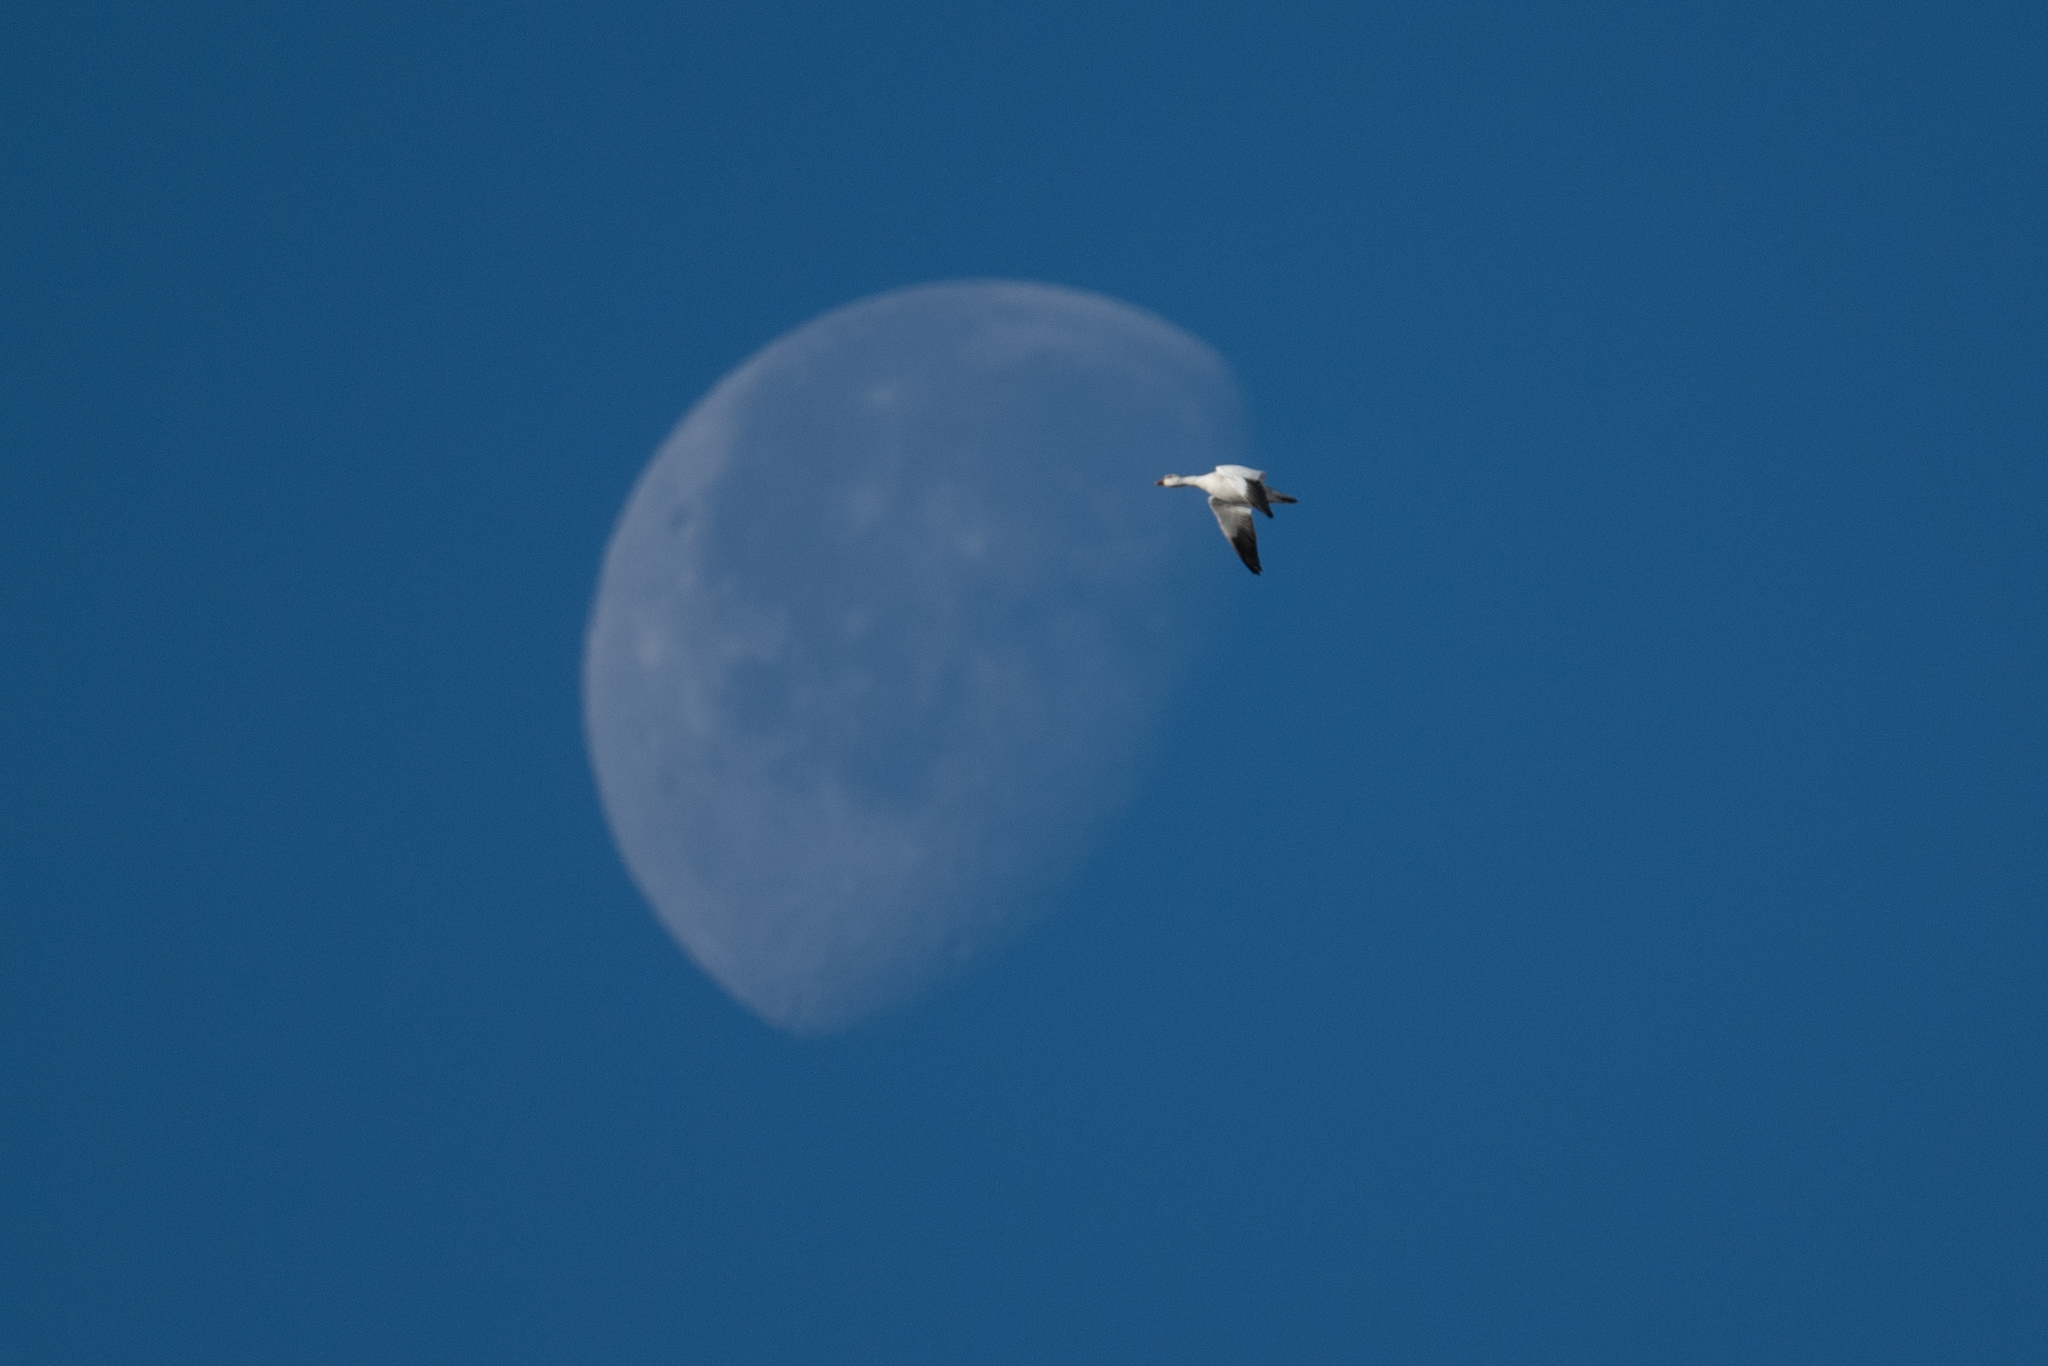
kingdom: Animalia
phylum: Chordata
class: Aves
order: Anseriformes
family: Anatidae
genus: Anser
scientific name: Anser caerulescens
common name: Snow goose
